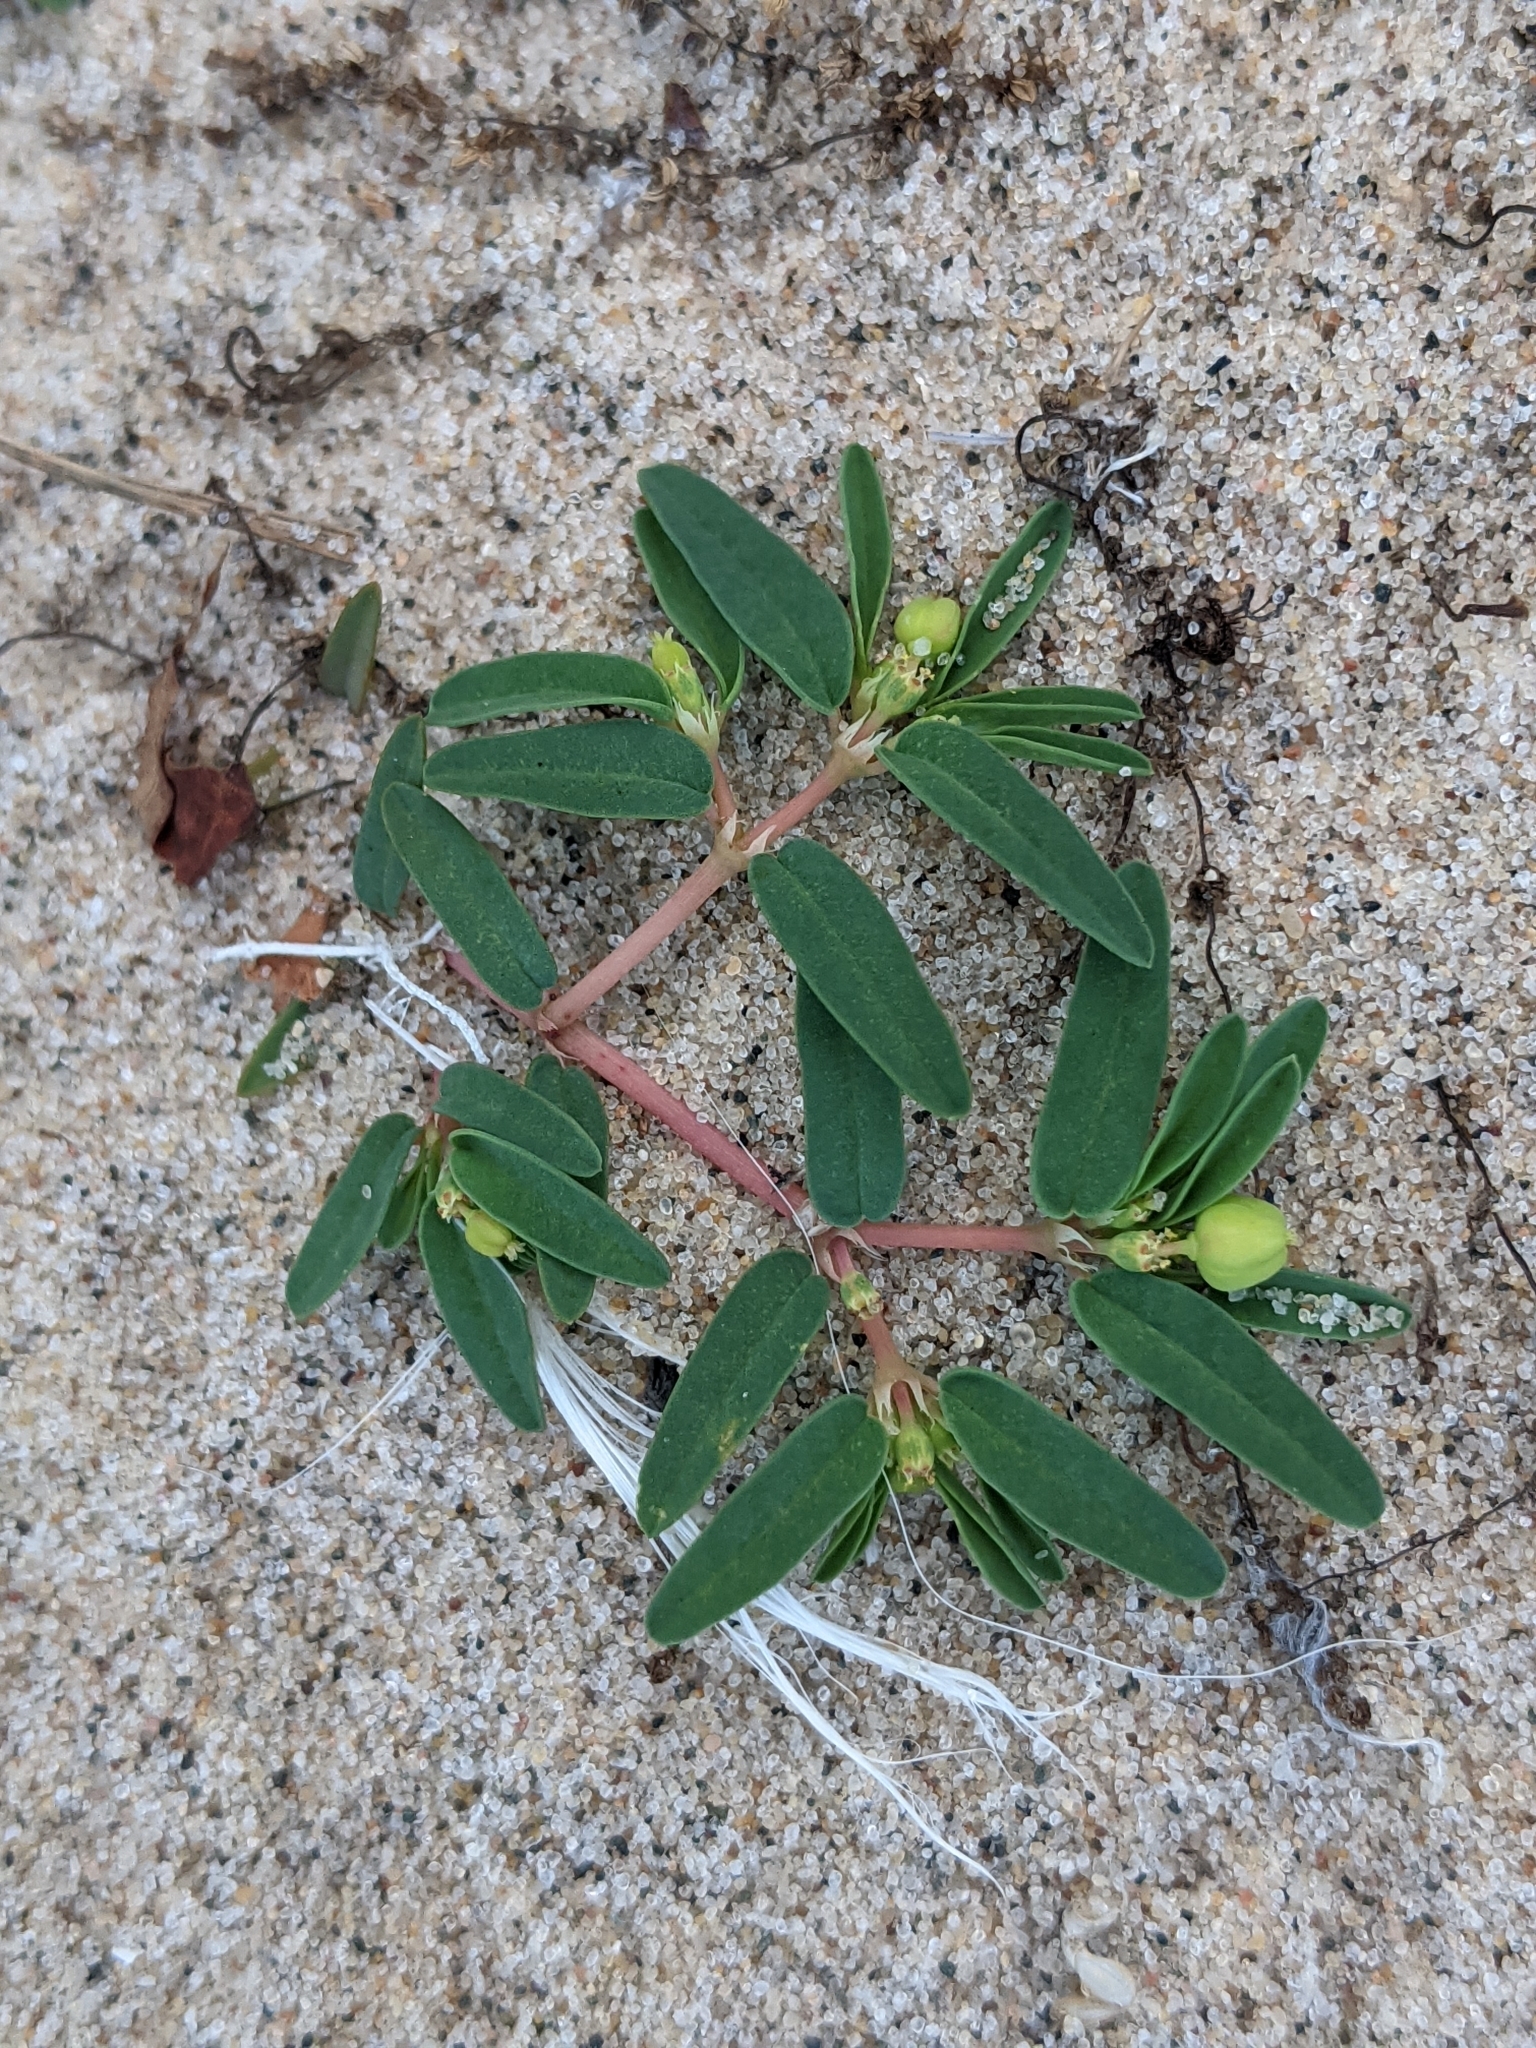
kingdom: Plantae
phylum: Tracheophyta
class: Magnoliopsida
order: Malpighiales
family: Euphorbiaceae
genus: Euphorbia
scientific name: Euphorbia polygonifolia
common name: Knotweed spurge
